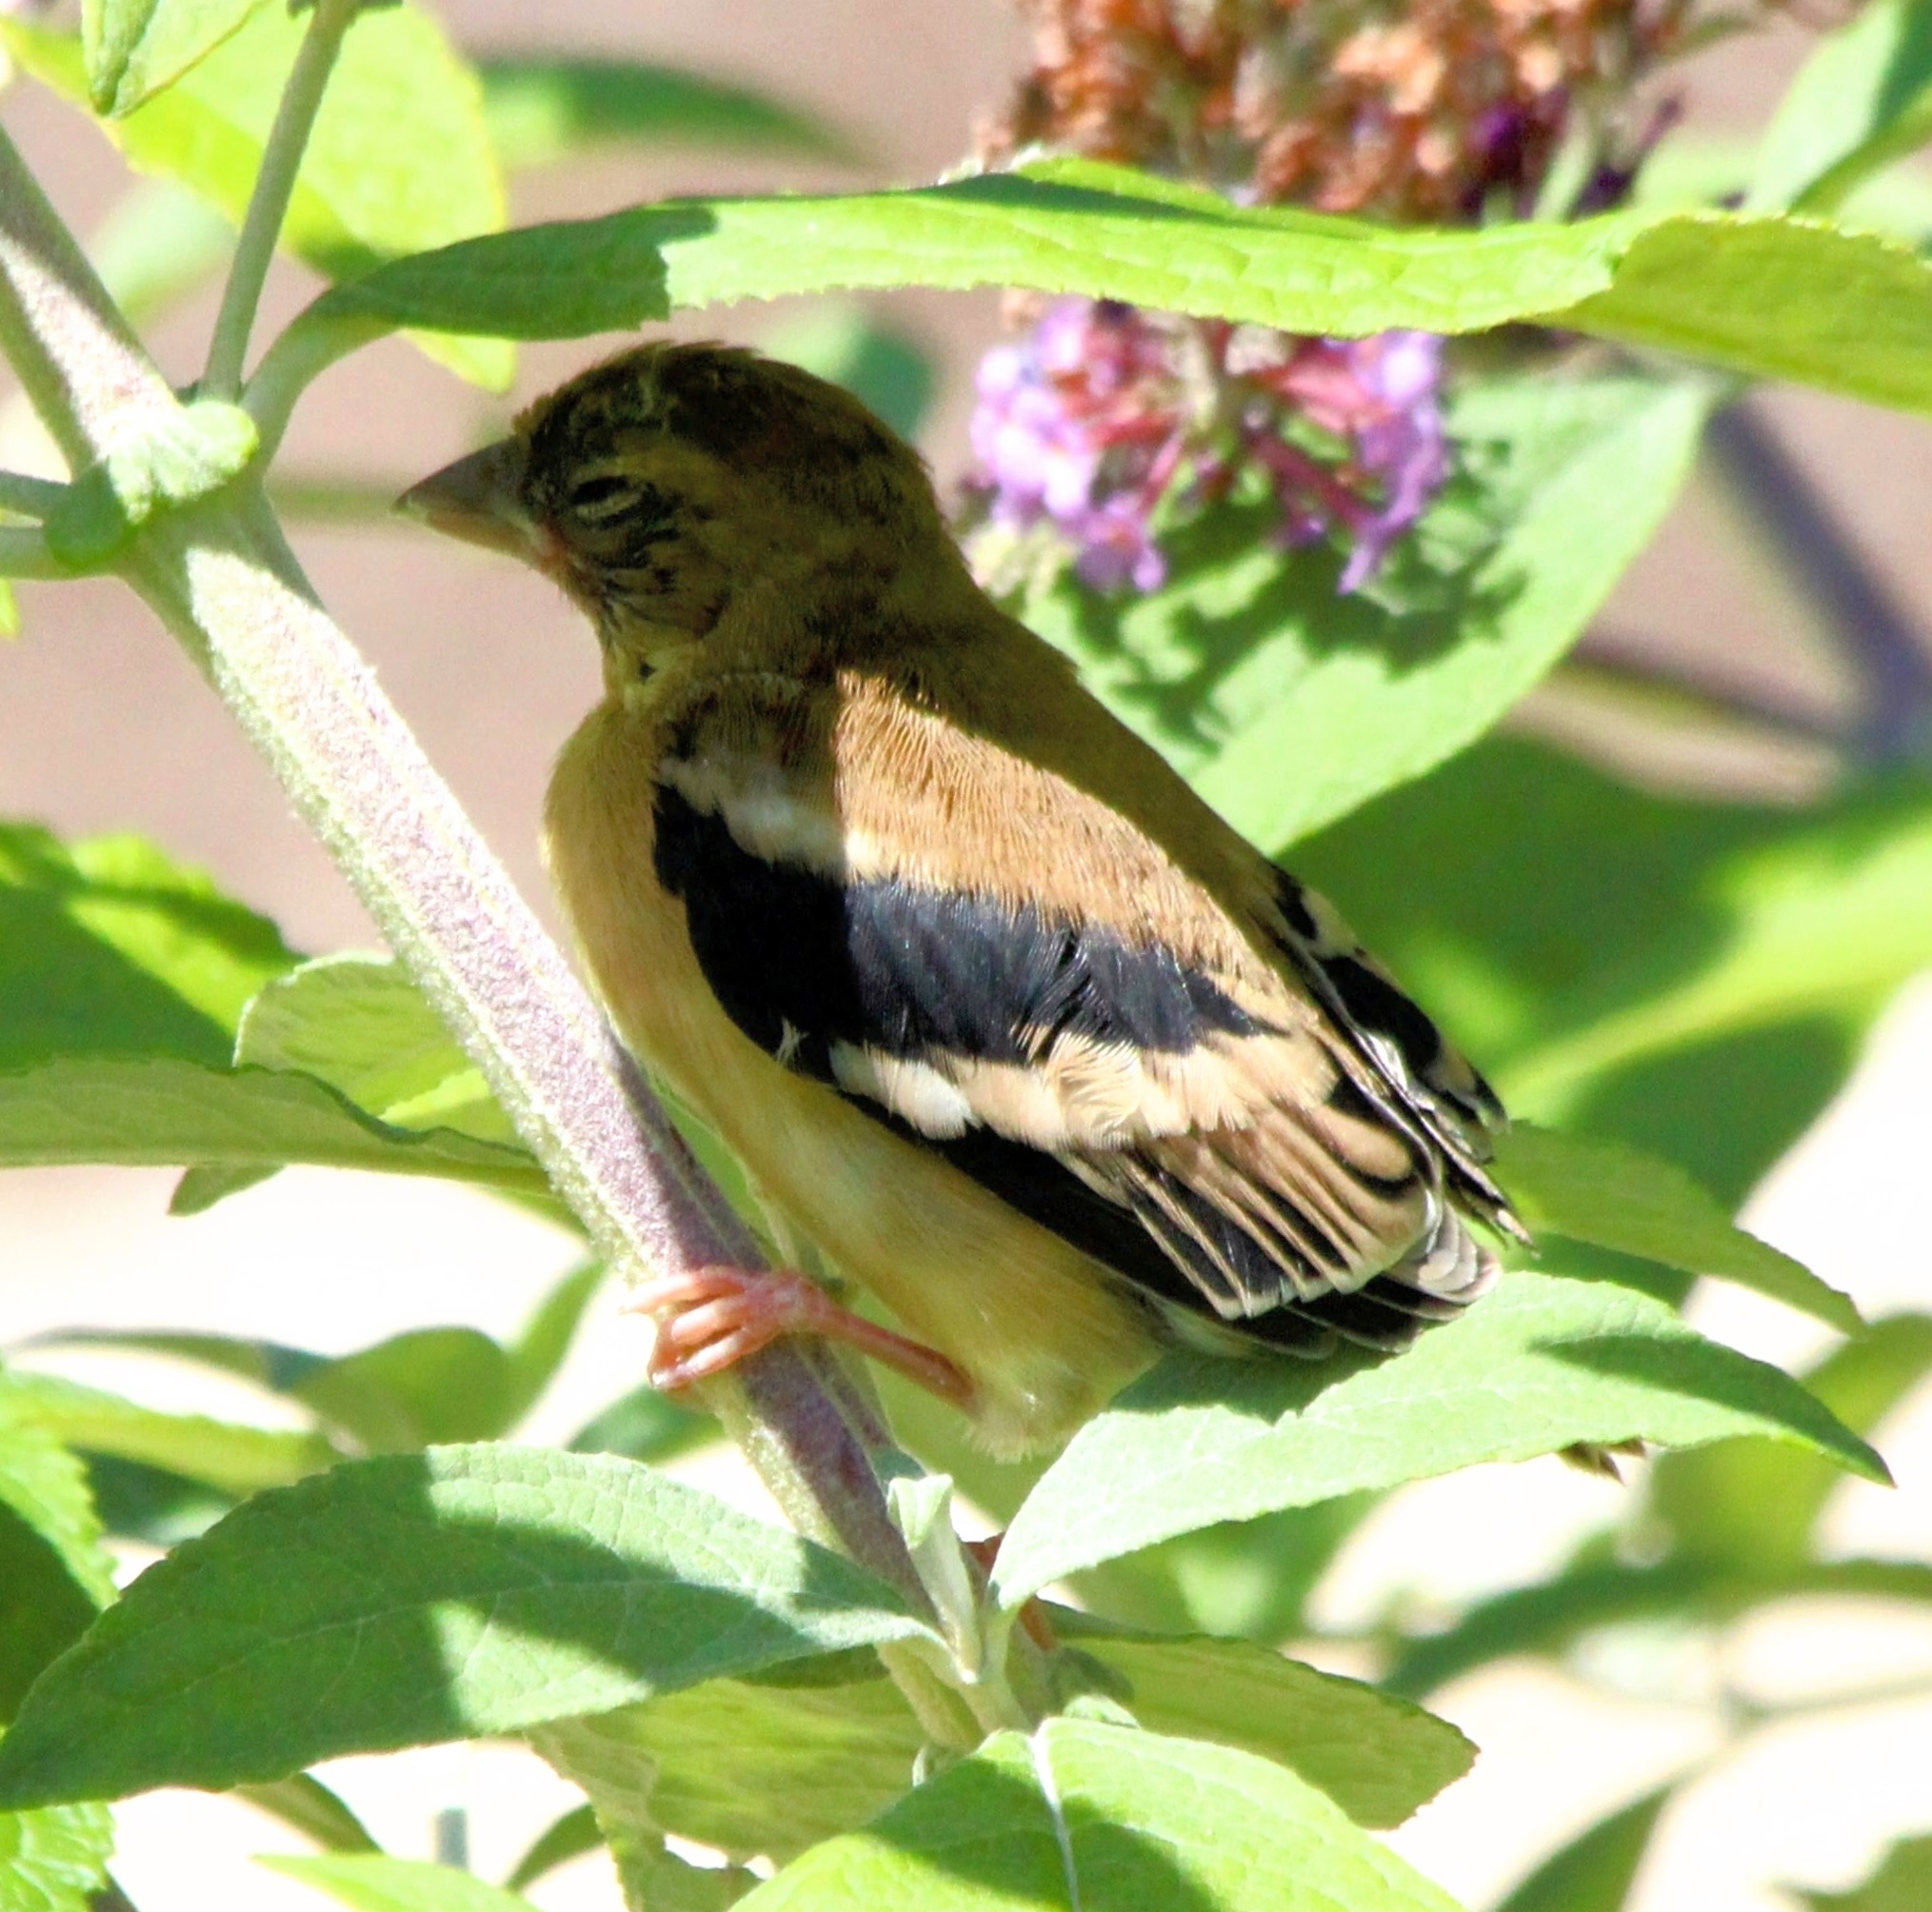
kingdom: Animalia
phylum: Chordata
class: Aves
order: Passeriformes
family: Fringillidae
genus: Spinus
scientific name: Spinus tristis
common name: American goldfinch
